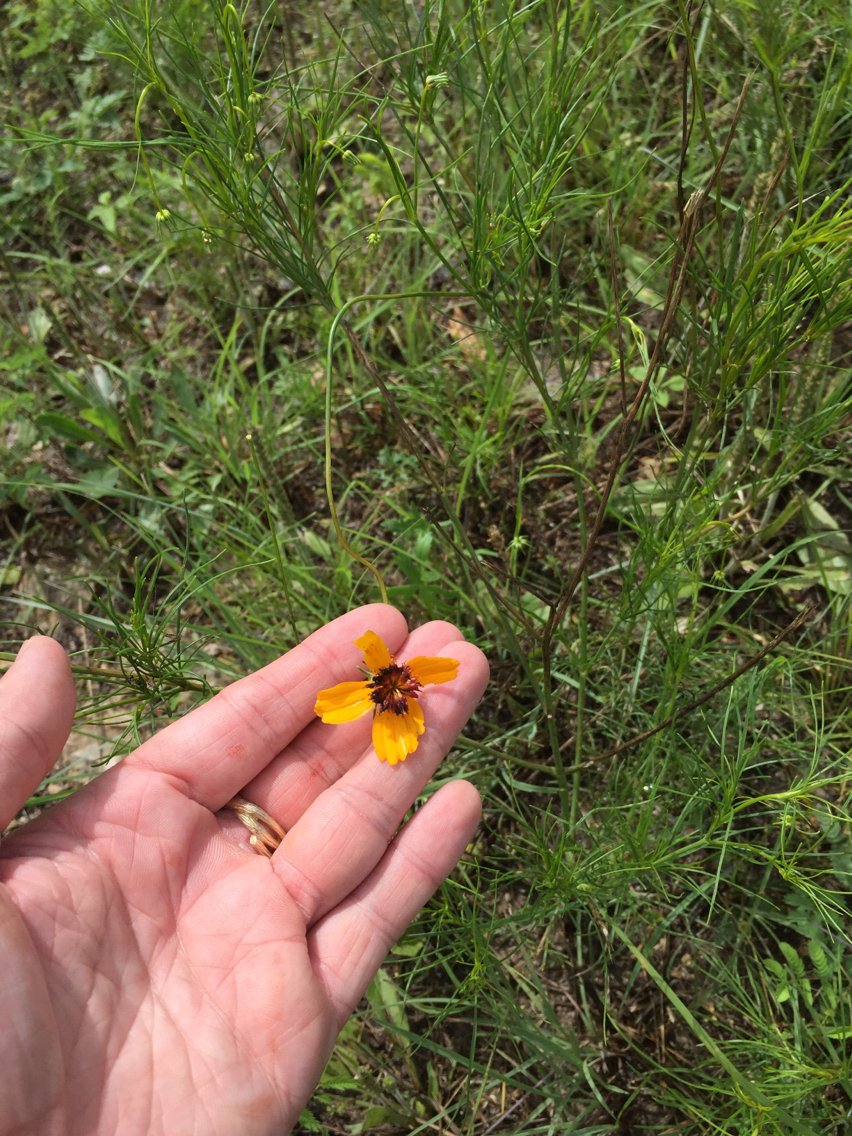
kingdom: Plantae
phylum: Tracheophyta
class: Magnoliopsida
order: Asterales
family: Asteraceae
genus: Thelesperma
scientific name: Thelesperma filifolium
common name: Stiff greenthread
